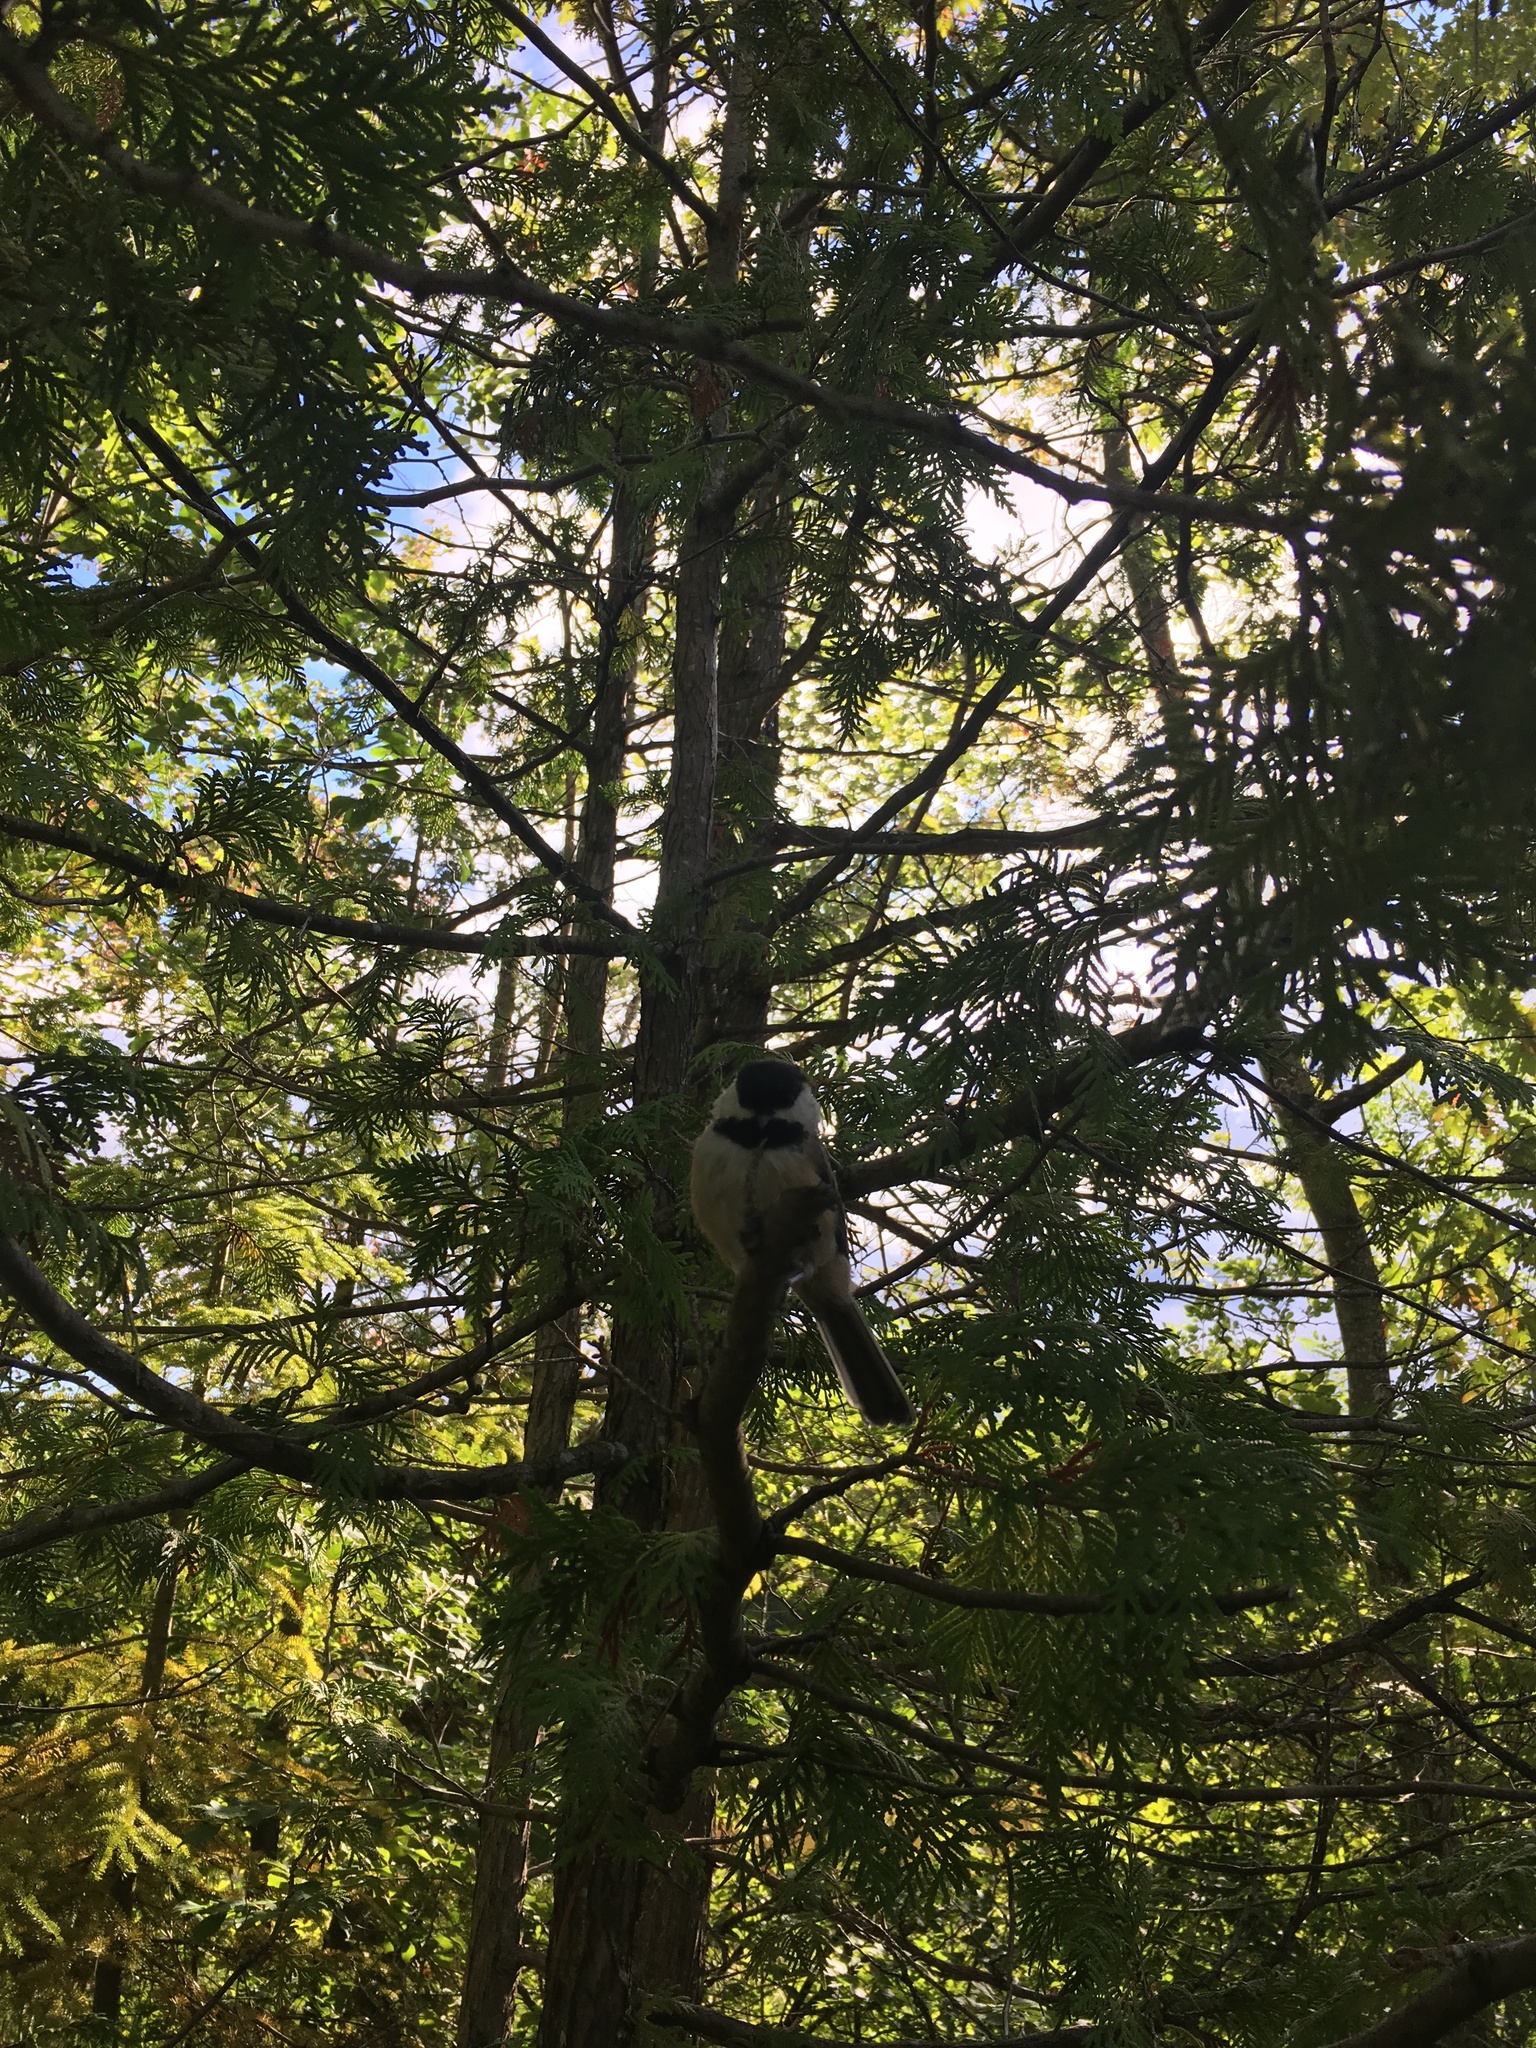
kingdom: Animalia
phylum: Chordata
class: Aves
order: Passeriformes
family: Paridae
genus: Poecile
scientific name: Poecile atricapillus
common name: Black-capped chickadee
